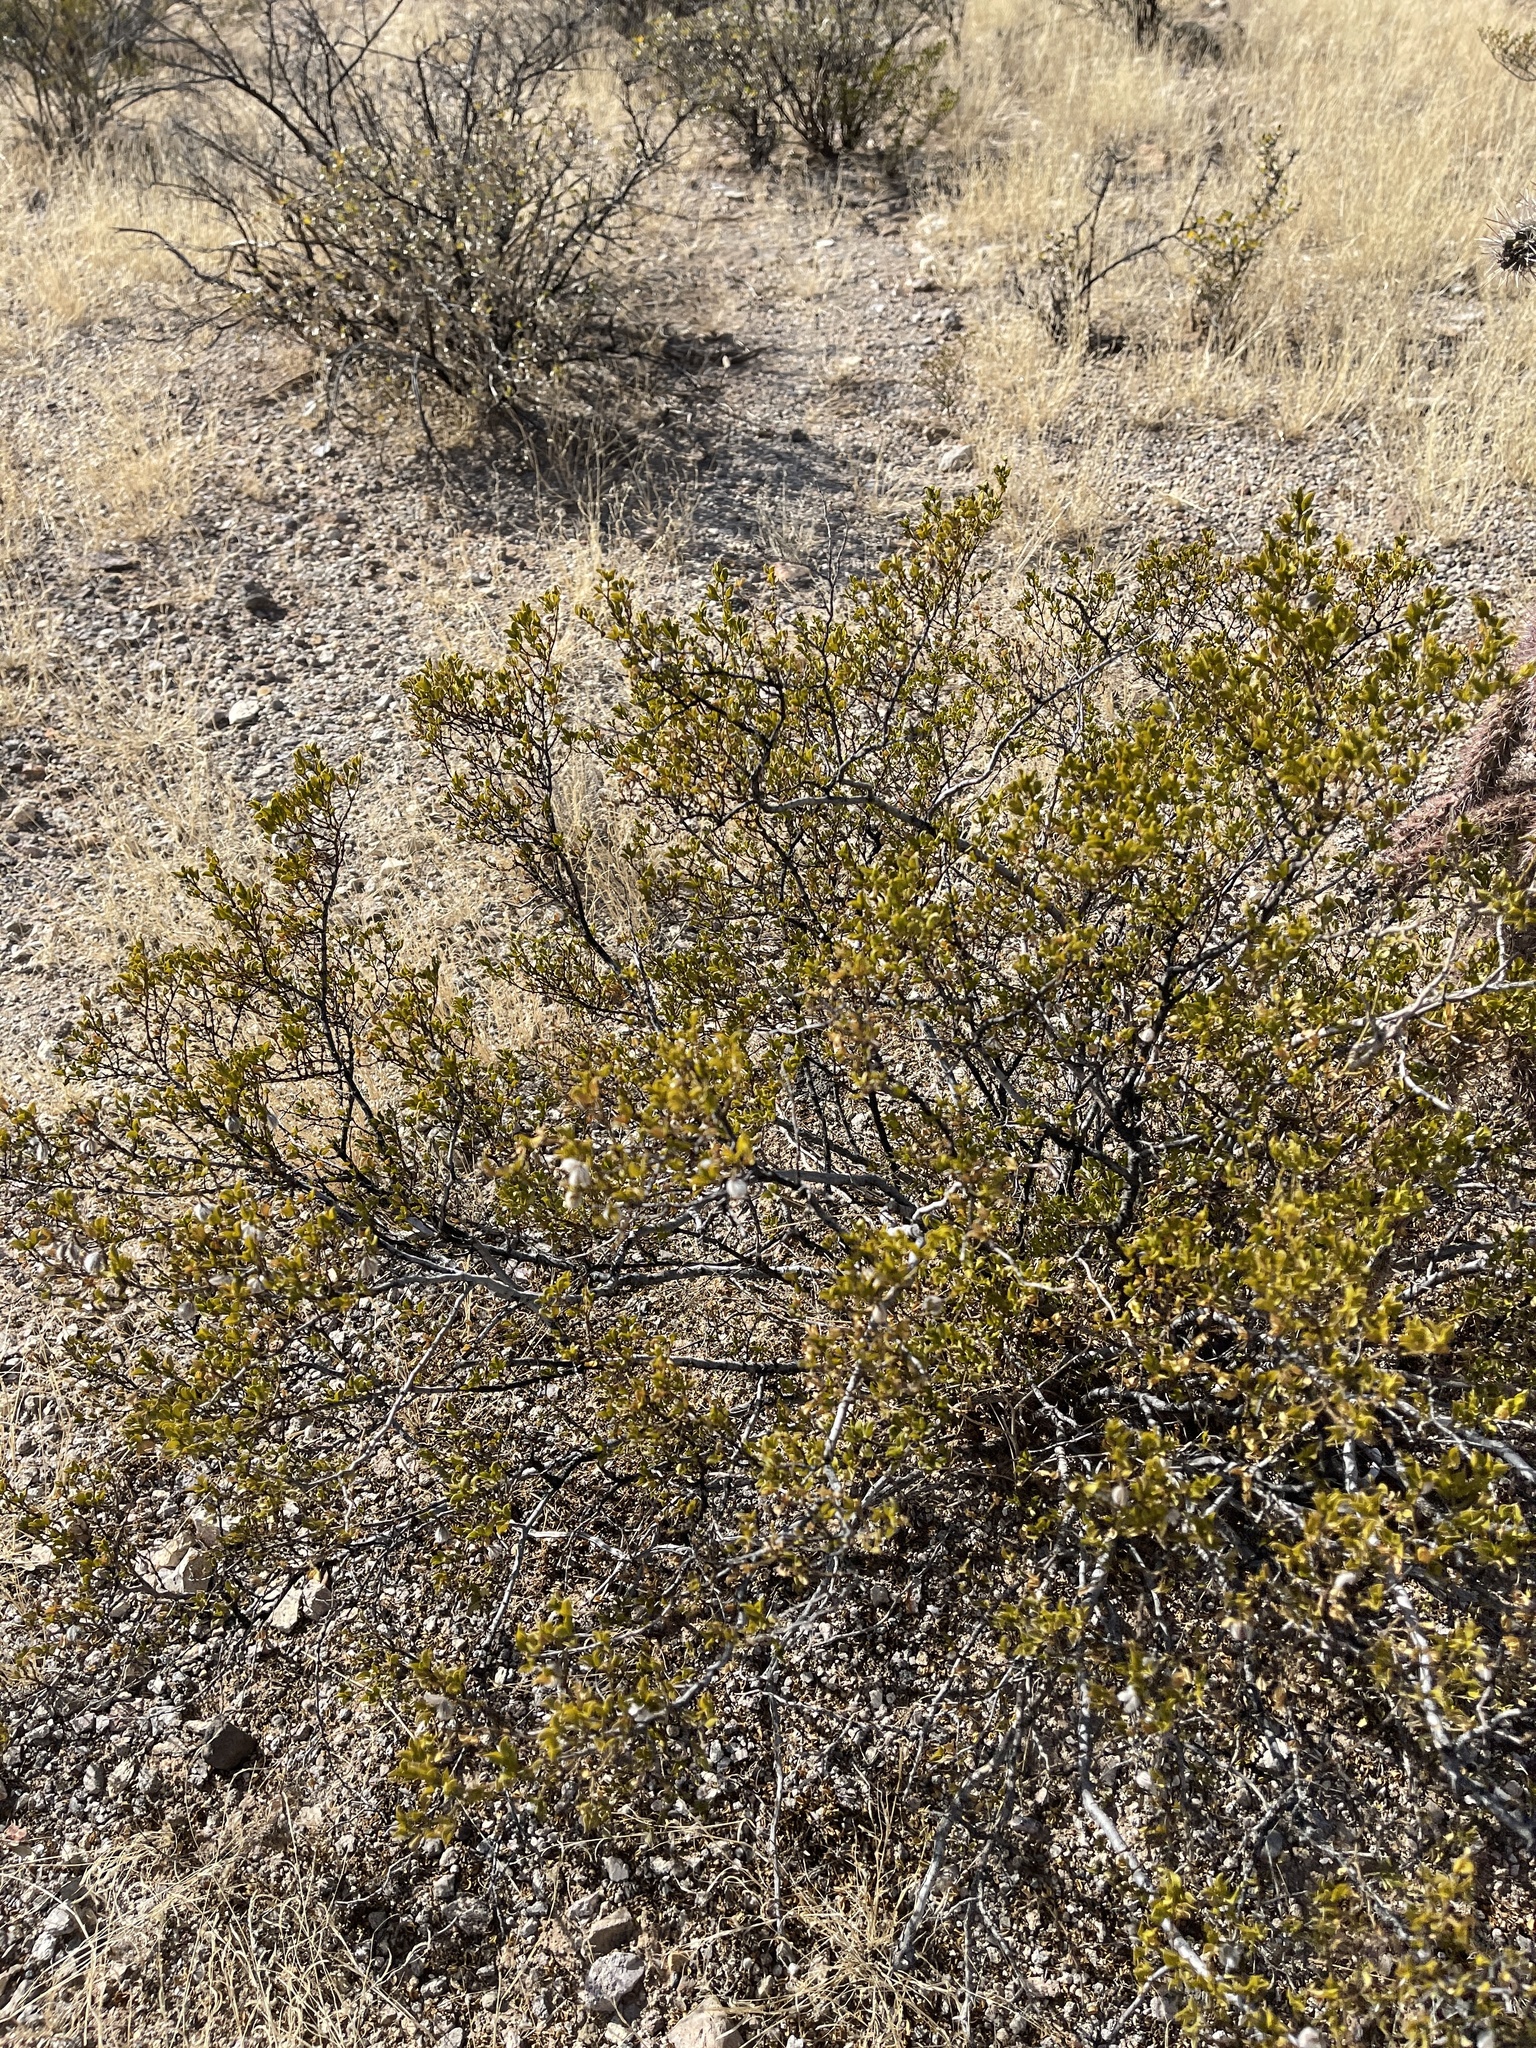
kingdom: Plantae
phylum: Tracheophyta
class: Magnoliopsida
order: Zygophyllales
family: Zygophyllaceae
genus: Larrea
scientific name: Larrea tridentata
